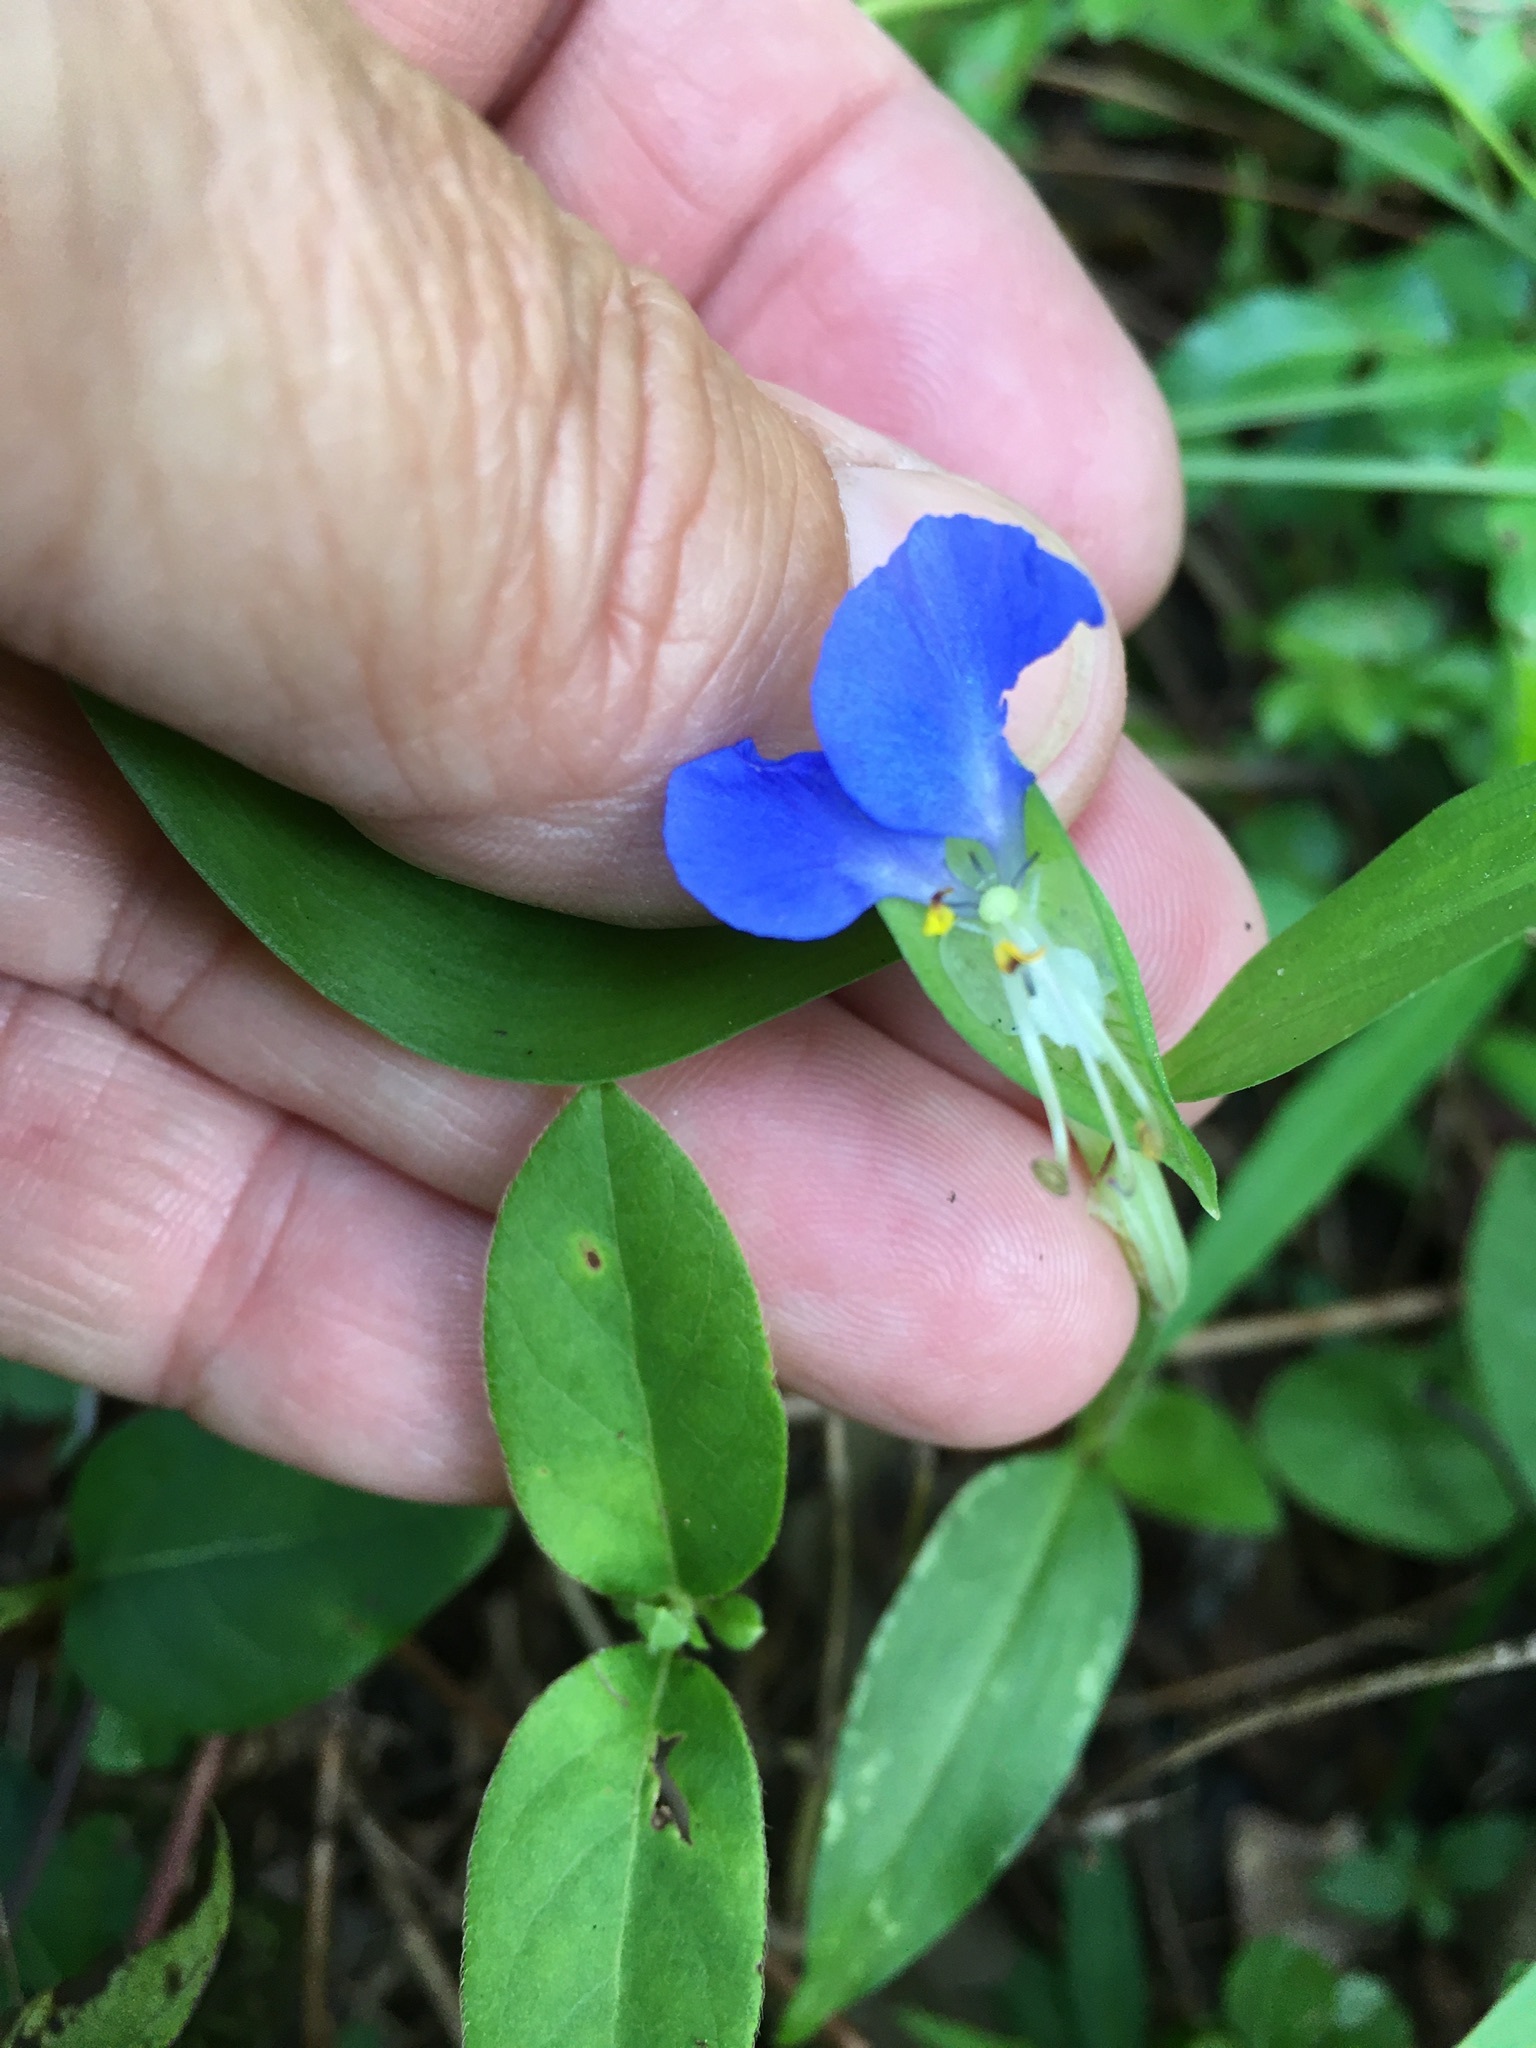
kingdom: Plantae
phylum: Tracheophyta
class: Liliopsida
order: Commelinales
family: Commelinaceae
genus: Commelina
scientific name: Commelina communis
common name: Asiatic dayflower
